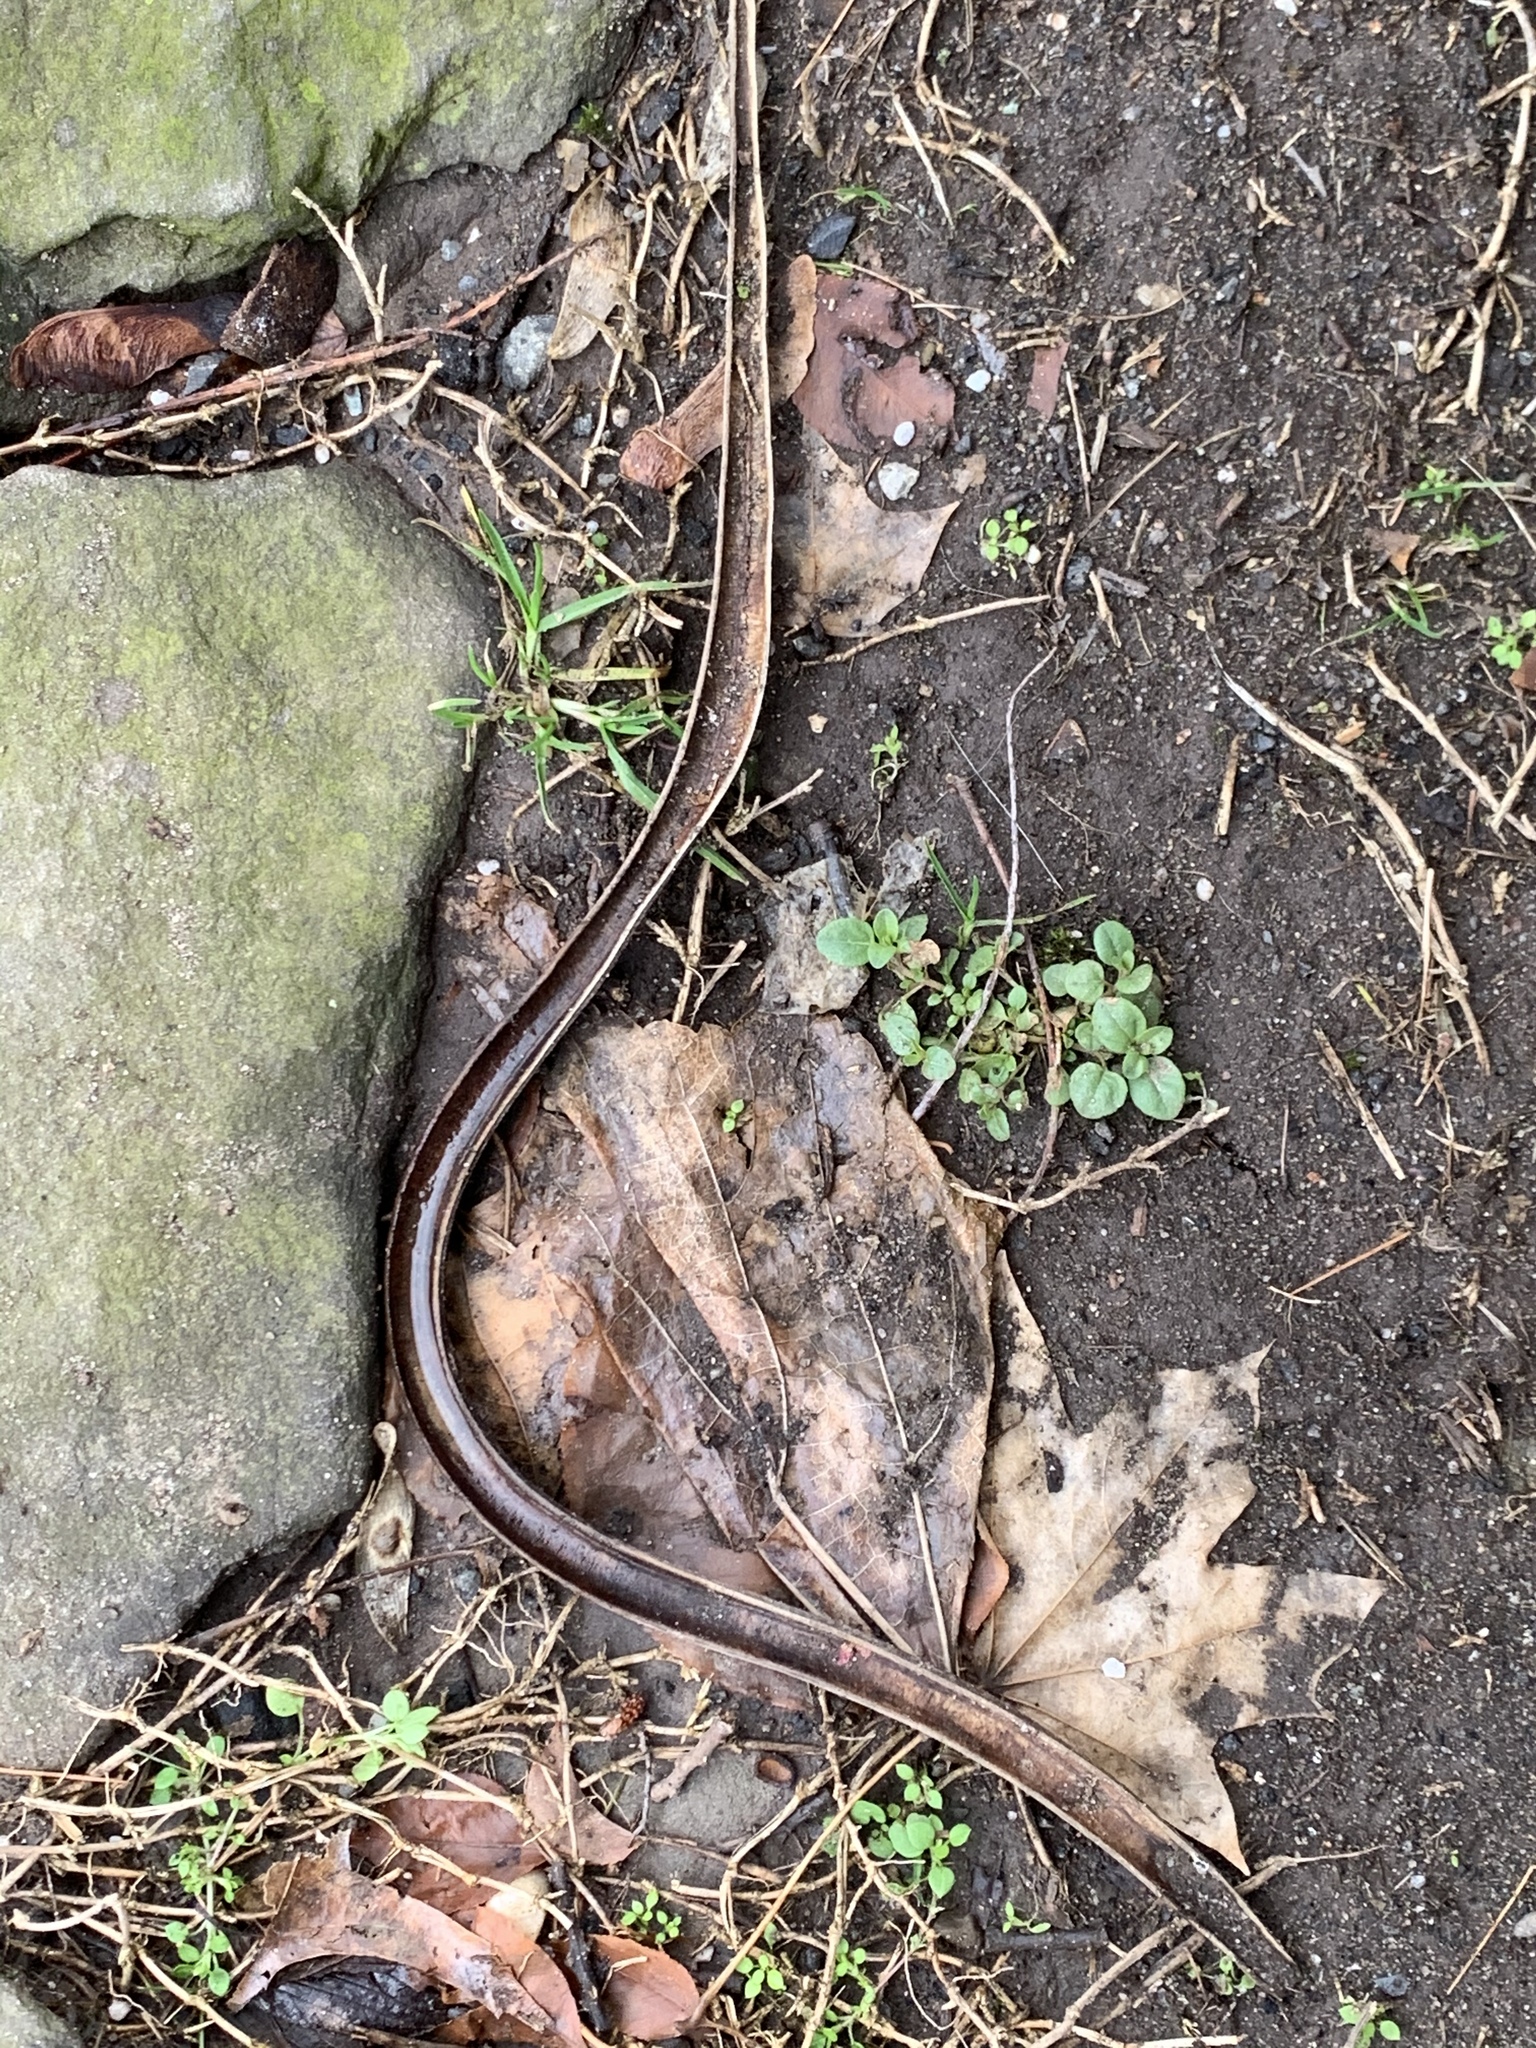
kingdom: Plantae
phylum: Tracheophyta
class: Magnoliopsida
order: Lamiales
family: Bignoniaceae
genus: Catalpa
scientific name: Catalpa
